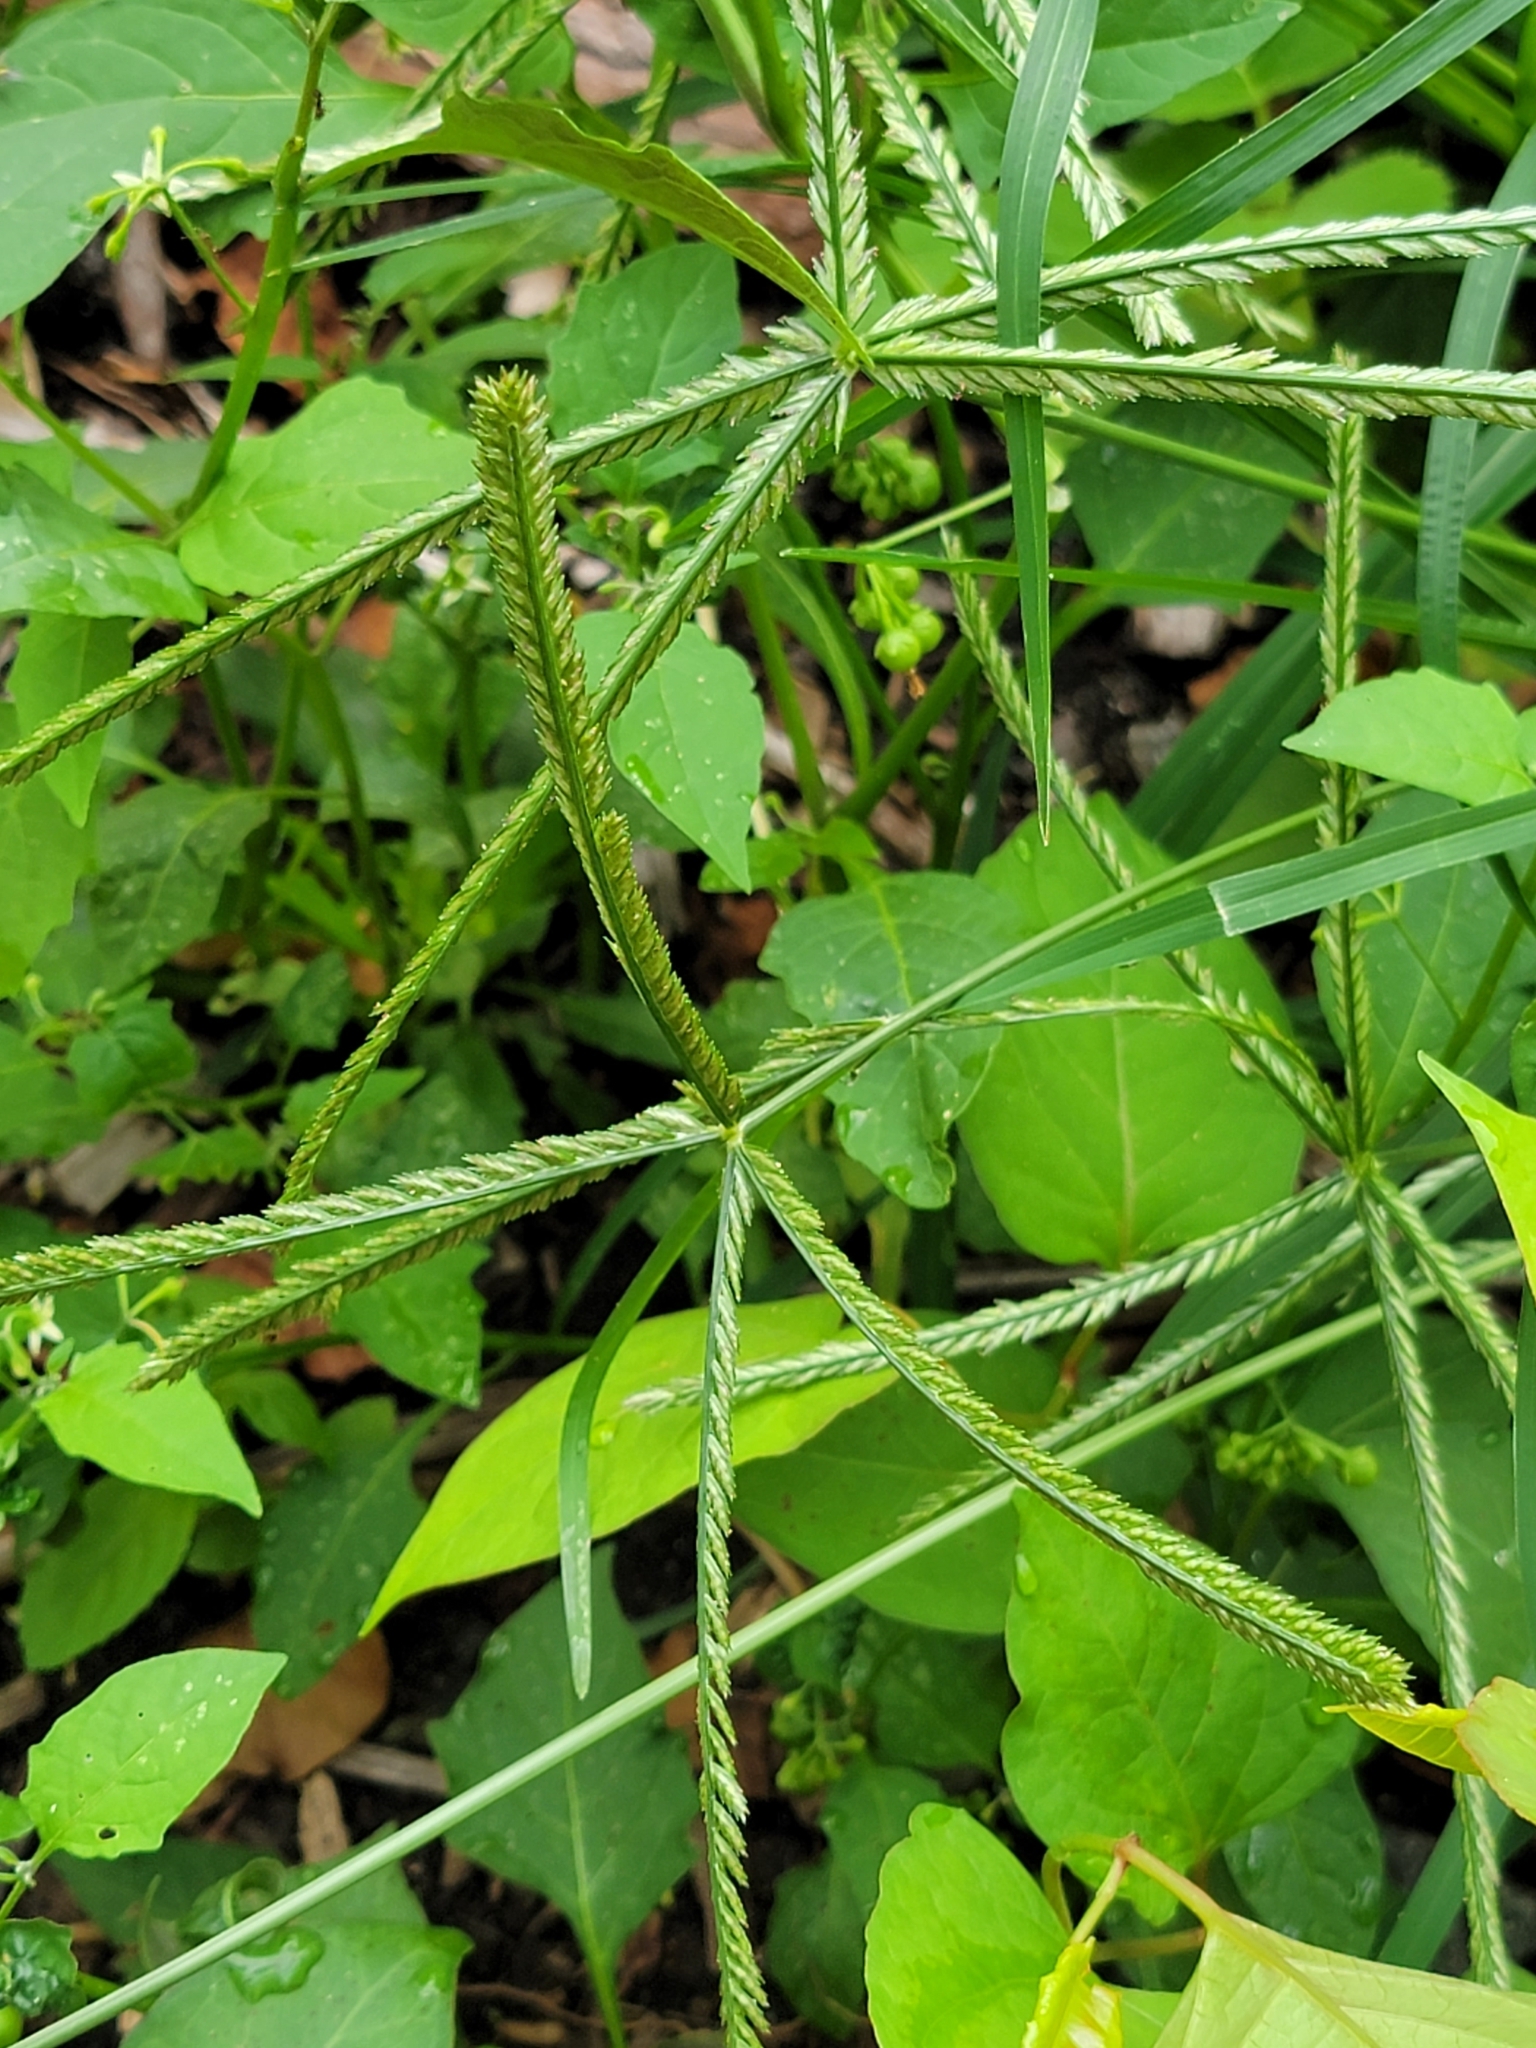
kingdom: Plantae
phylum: Tracheophyta
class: Liliopsida
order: Poales
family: Poaceae
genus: Eleusine
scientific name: Eleusine indica
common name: Yard-grass
